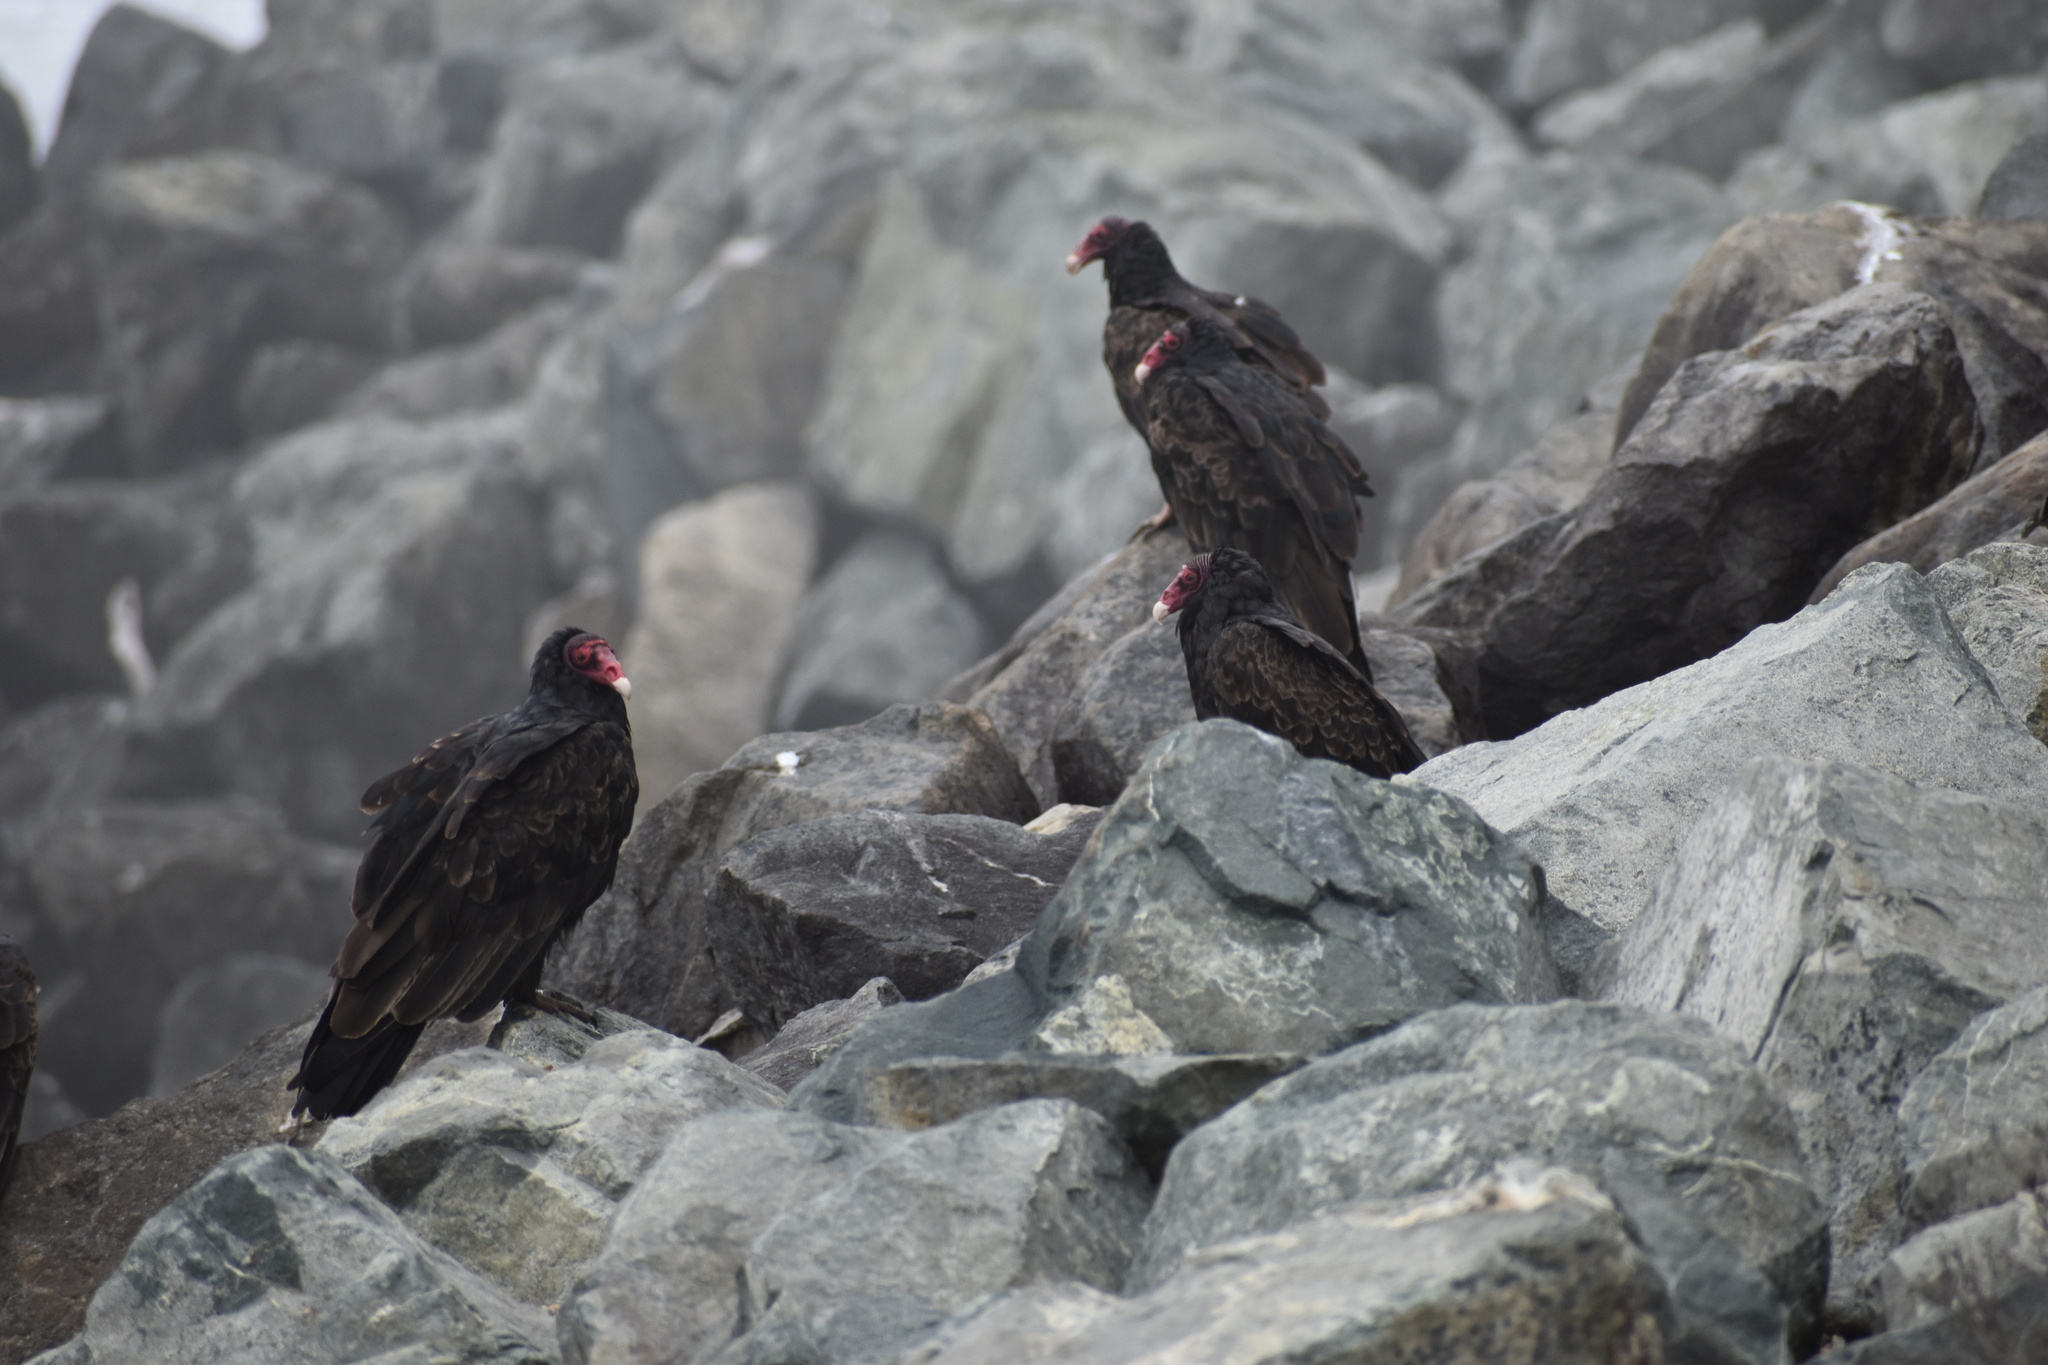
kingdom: Animalia
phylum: Chordata
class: Aves
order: Accipitriformes
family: Cathartidae
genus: Cathartes
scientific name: Cathartes aura
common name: Turkey vulture
